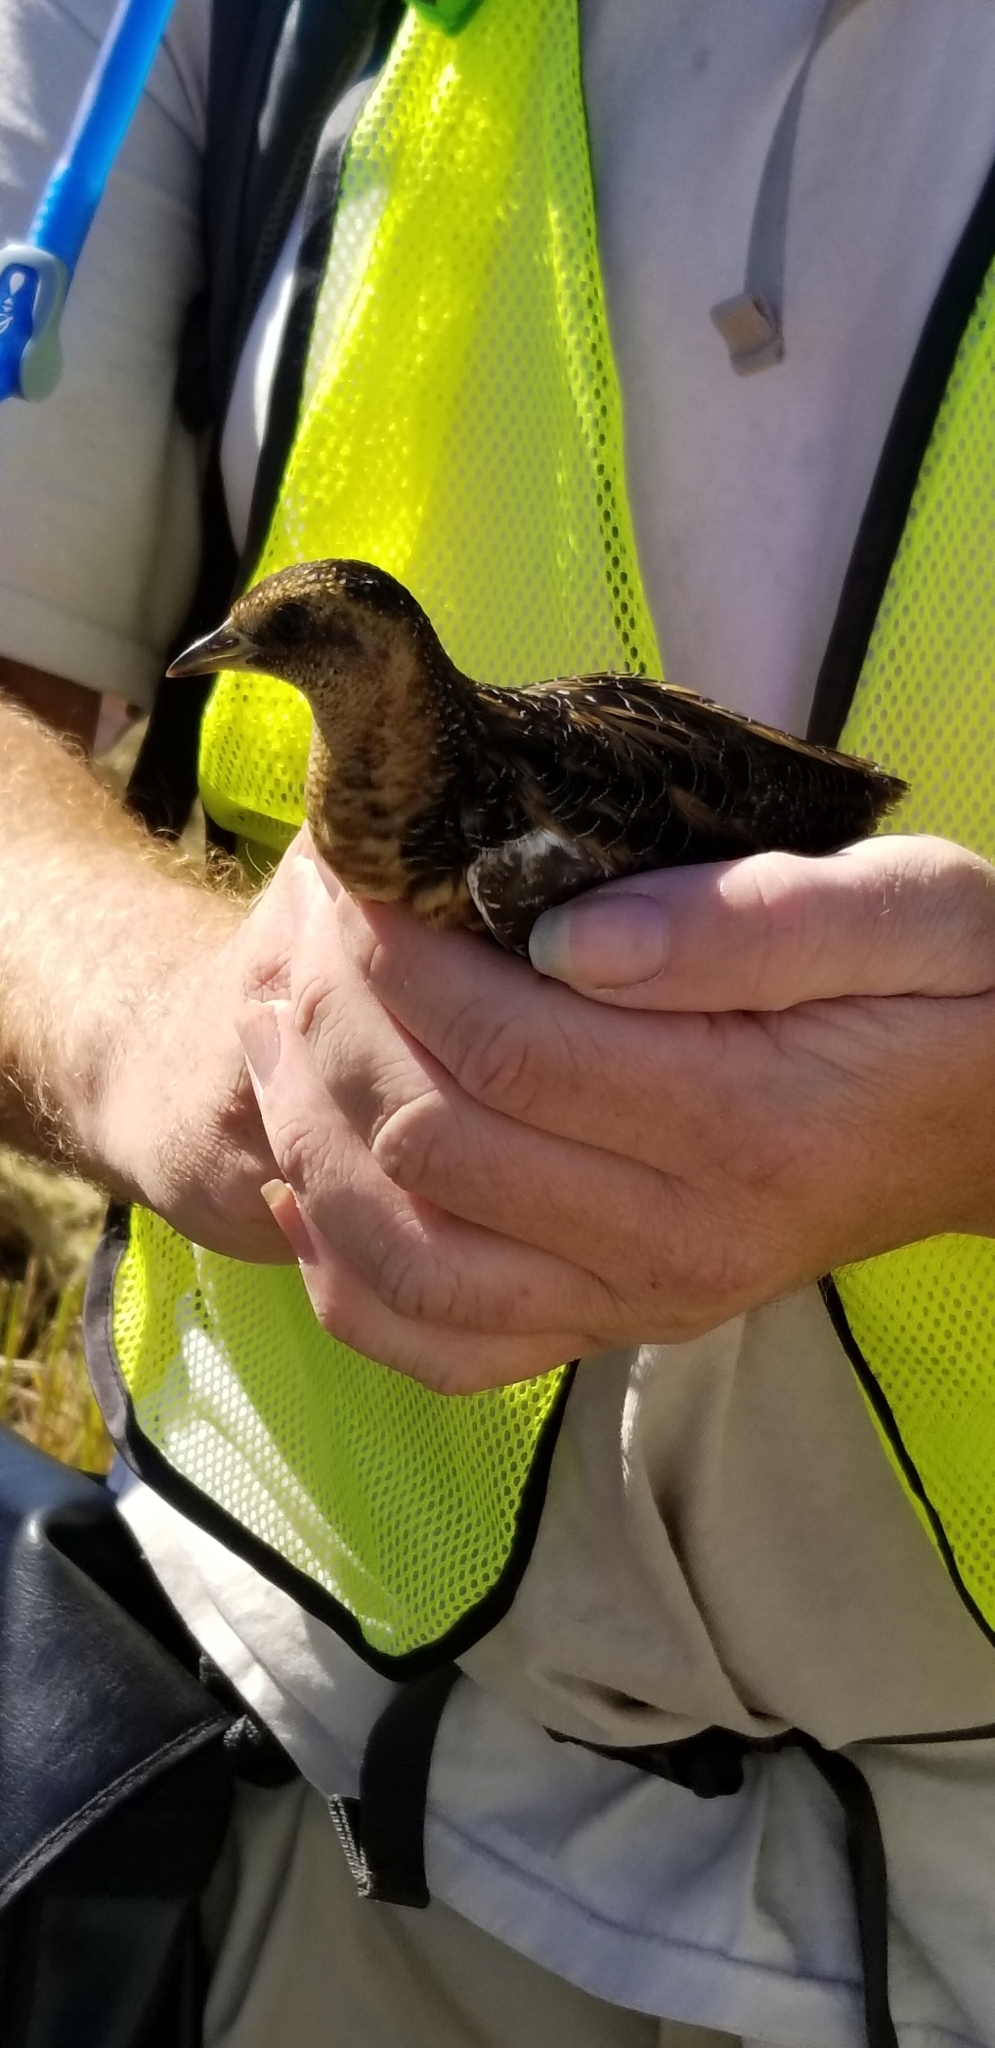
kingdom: Animalia
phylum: Chordata
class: Aves
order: Gruiformes
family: Rallidae
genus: Coturnicops
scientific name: Coturnicops noveboracensis
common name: Yellow rail
